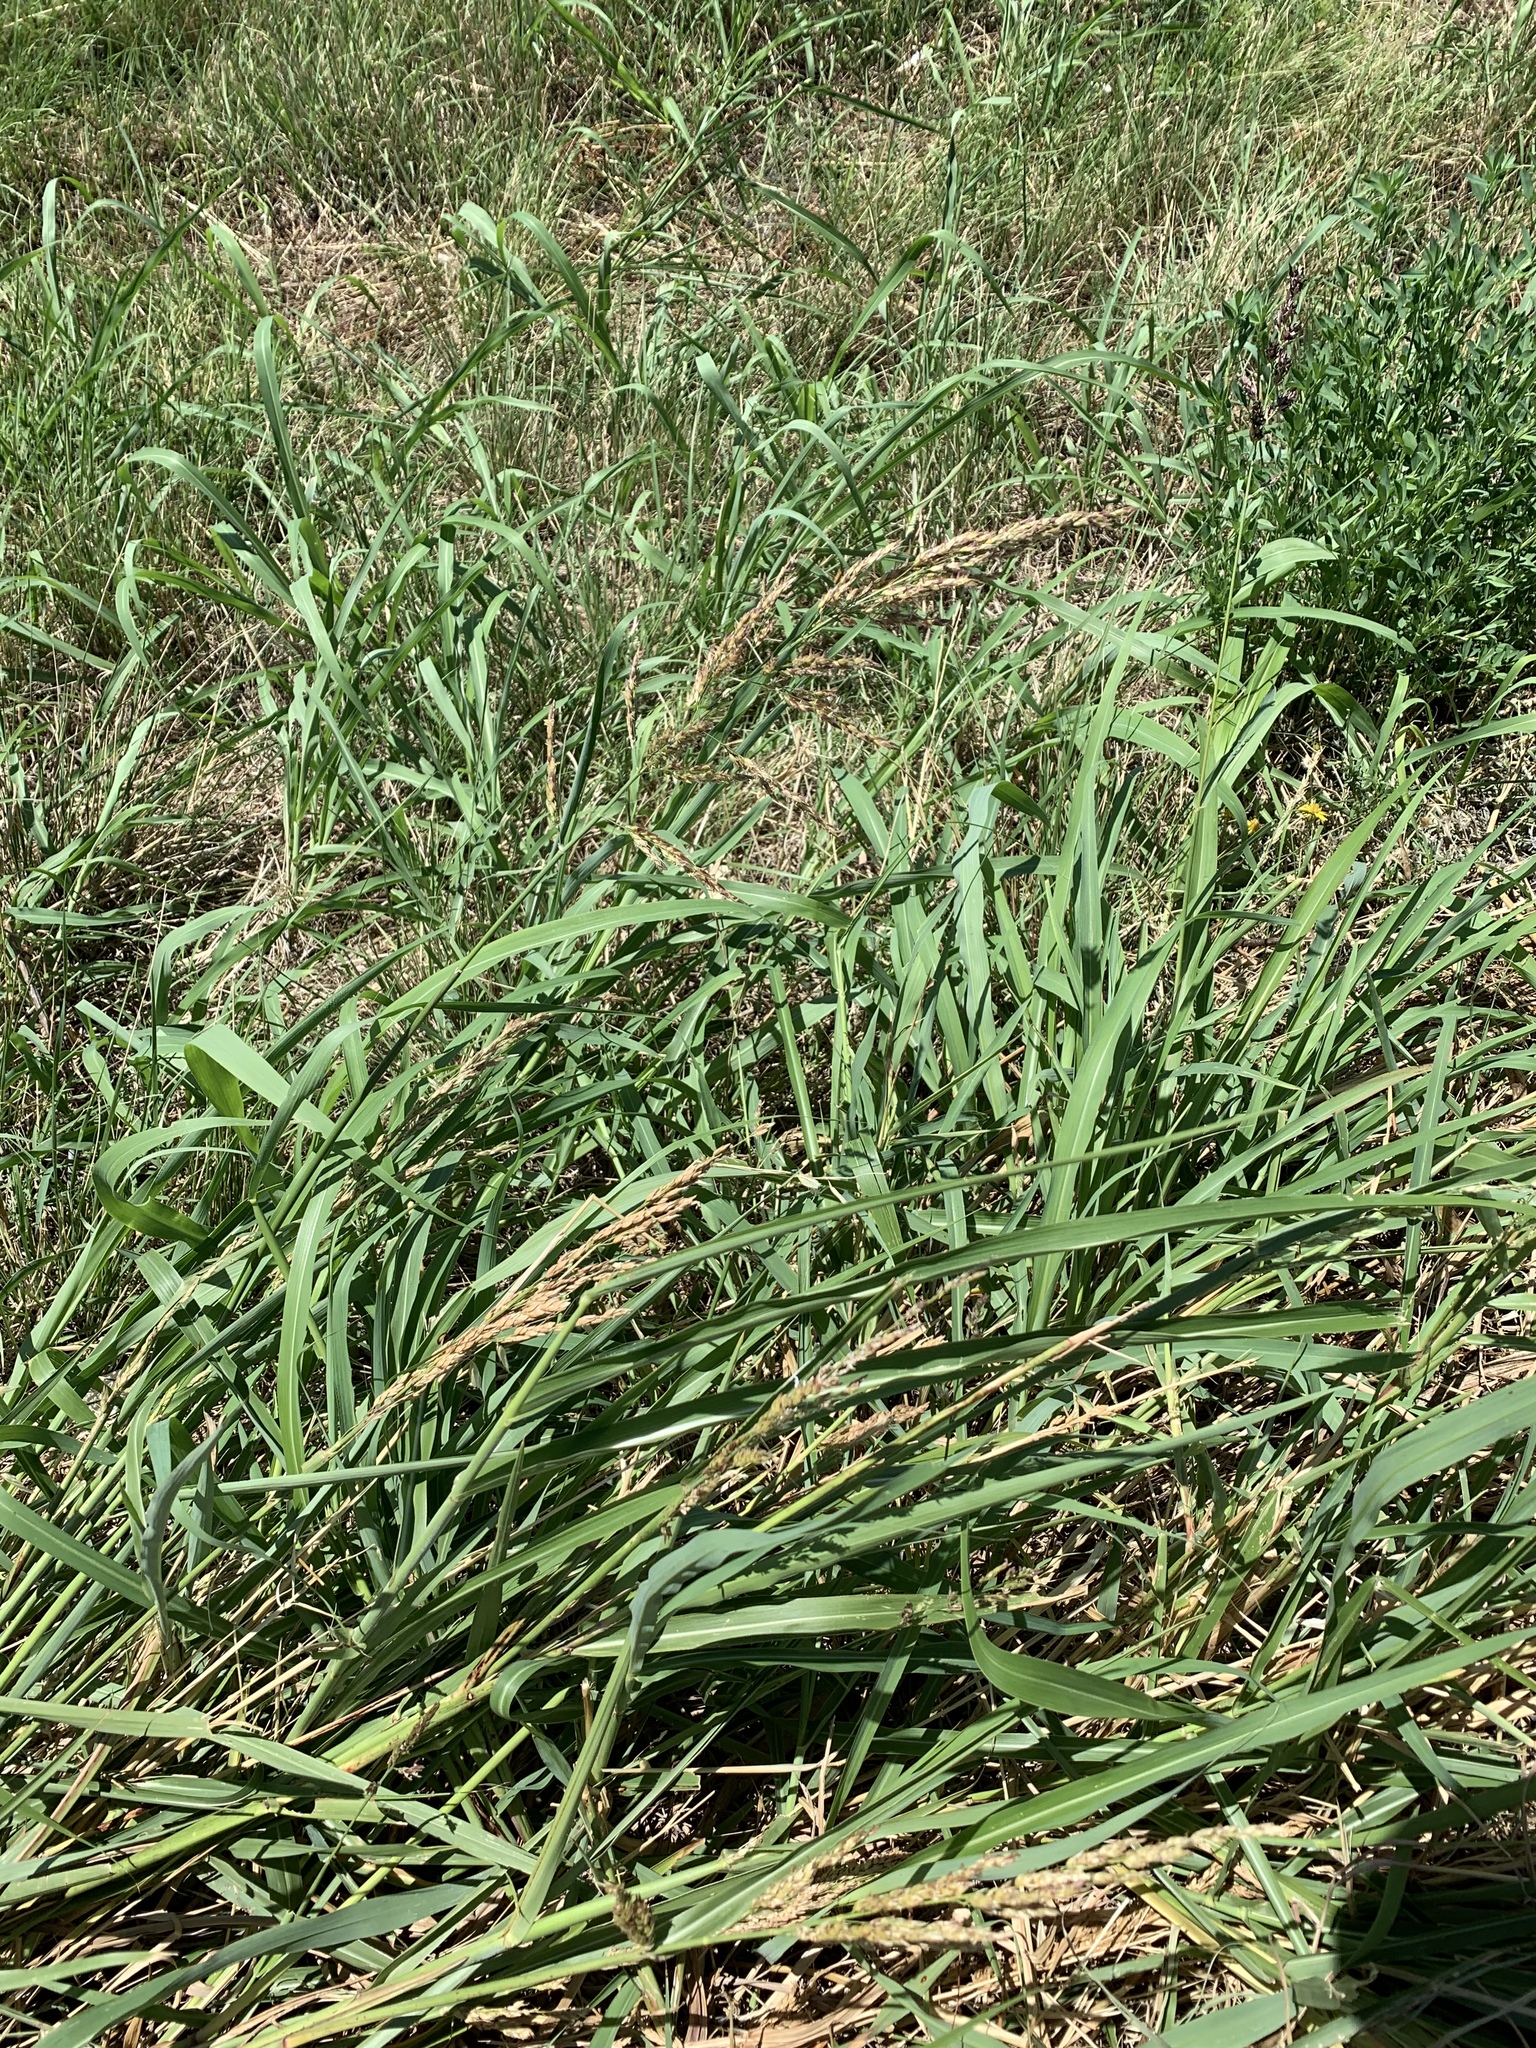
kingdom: Plantae
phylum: Tracheophyta
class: Liliopsida
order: Poales
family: Poaceae
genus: Sorghum
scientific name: Sorghum halepense
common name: Johnson-grass
